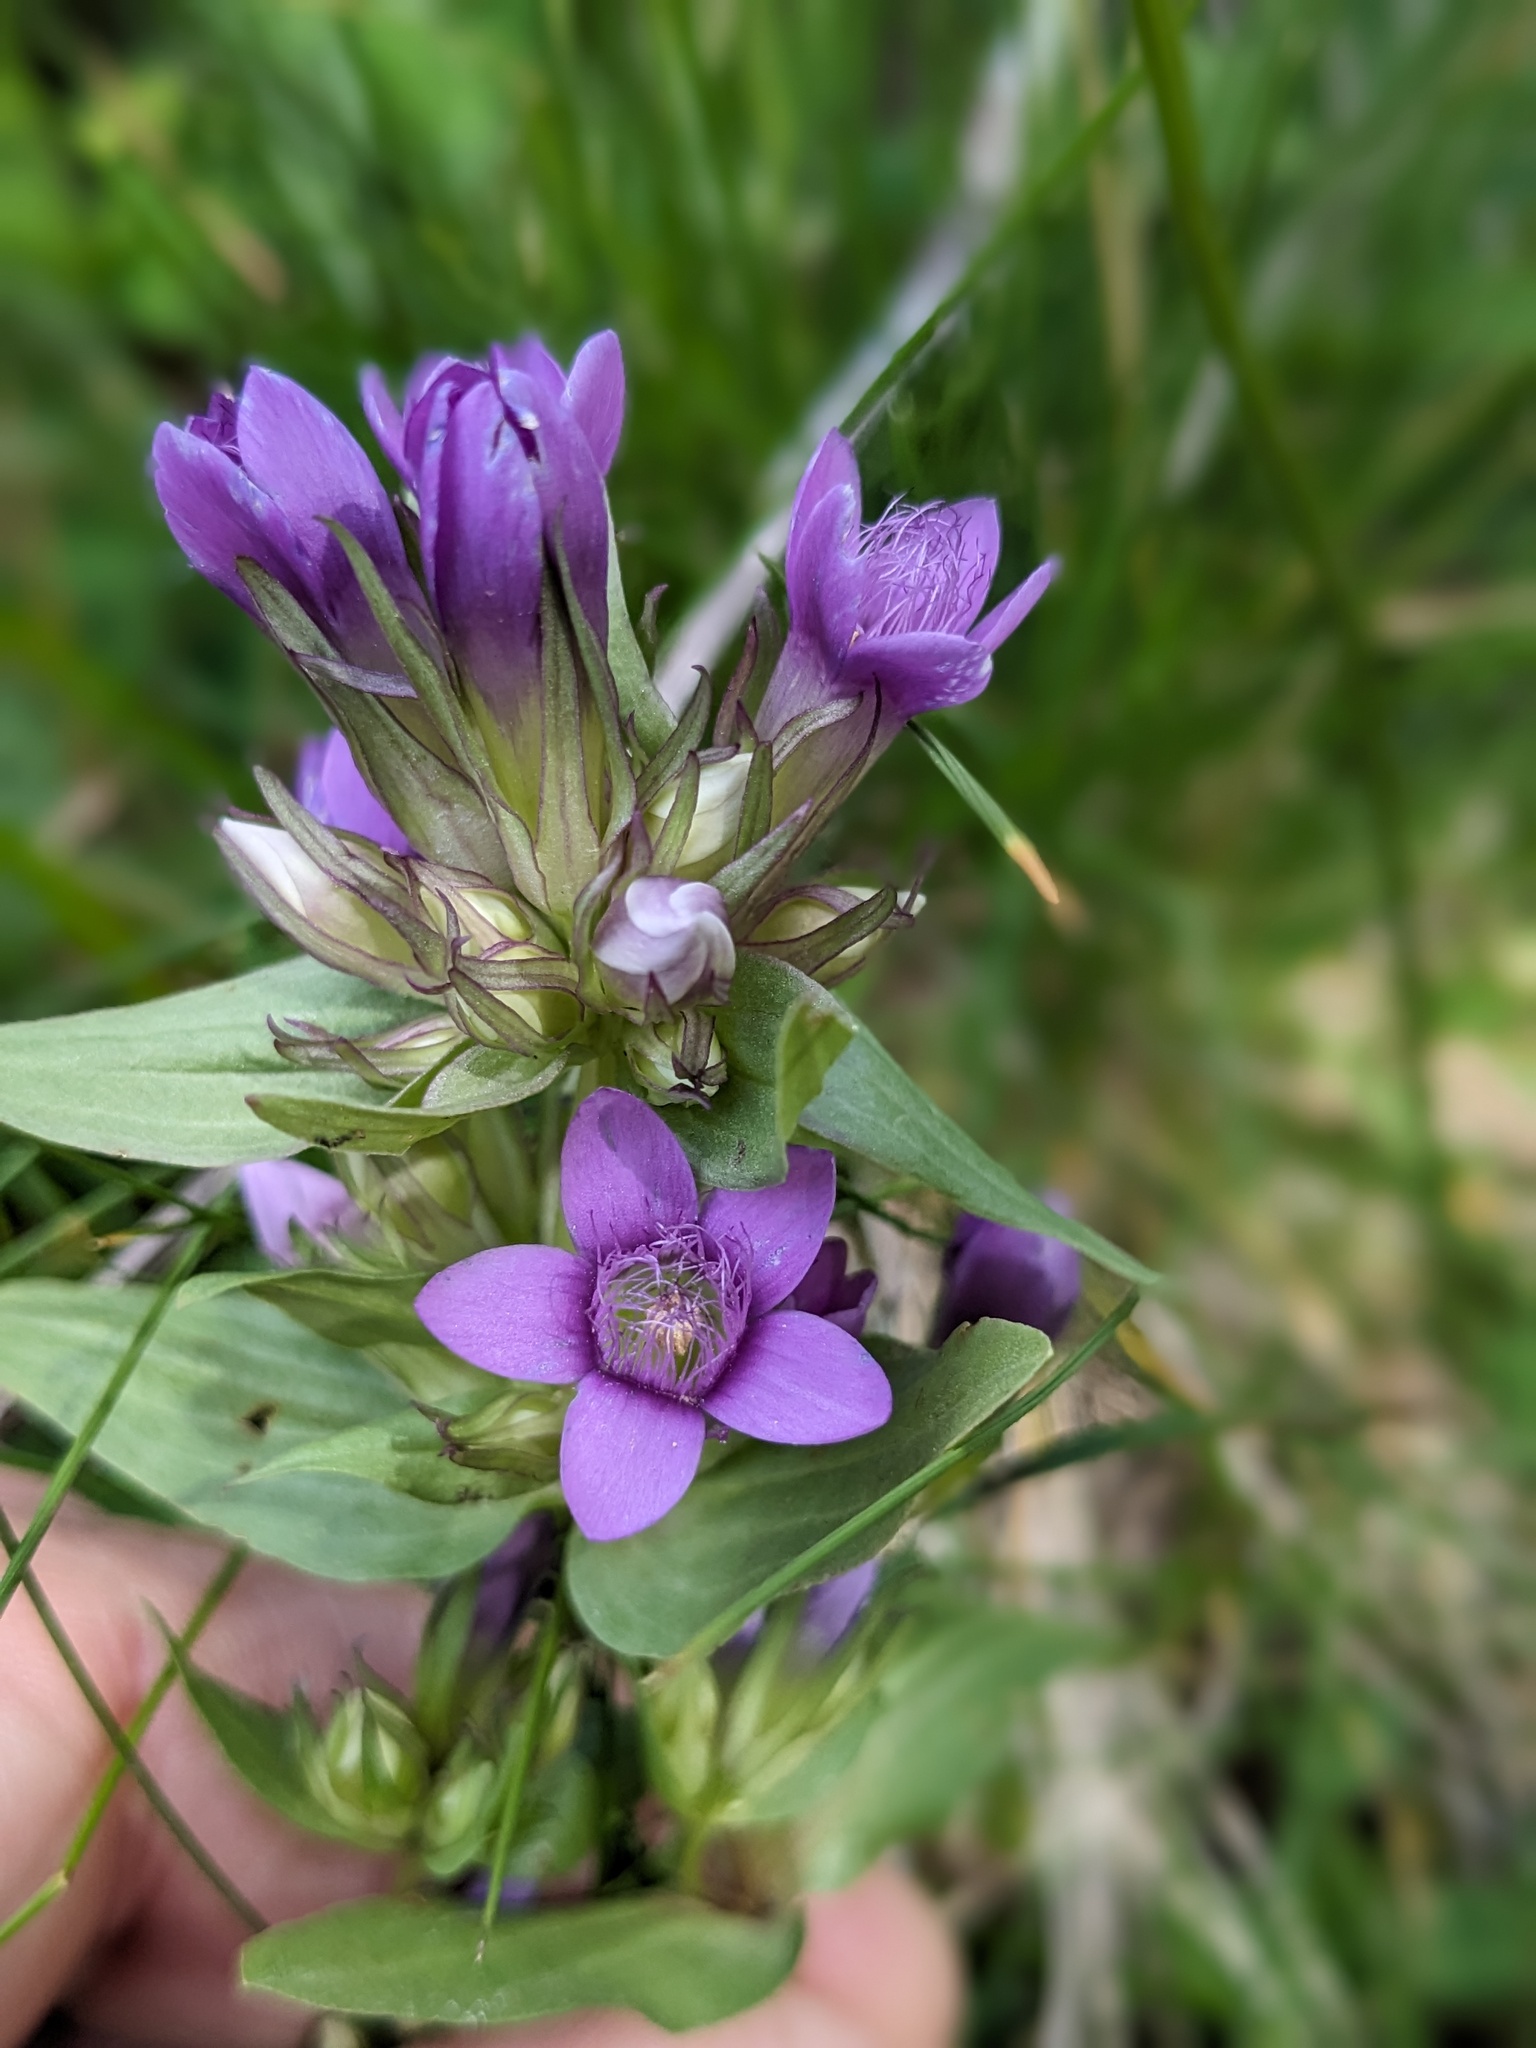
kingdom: Plantae
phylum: Tracheophyta
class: Magnoliopsida
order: Gentianales
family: Gentianaceae
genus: Gentianella
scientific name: Gentianella ramosa
